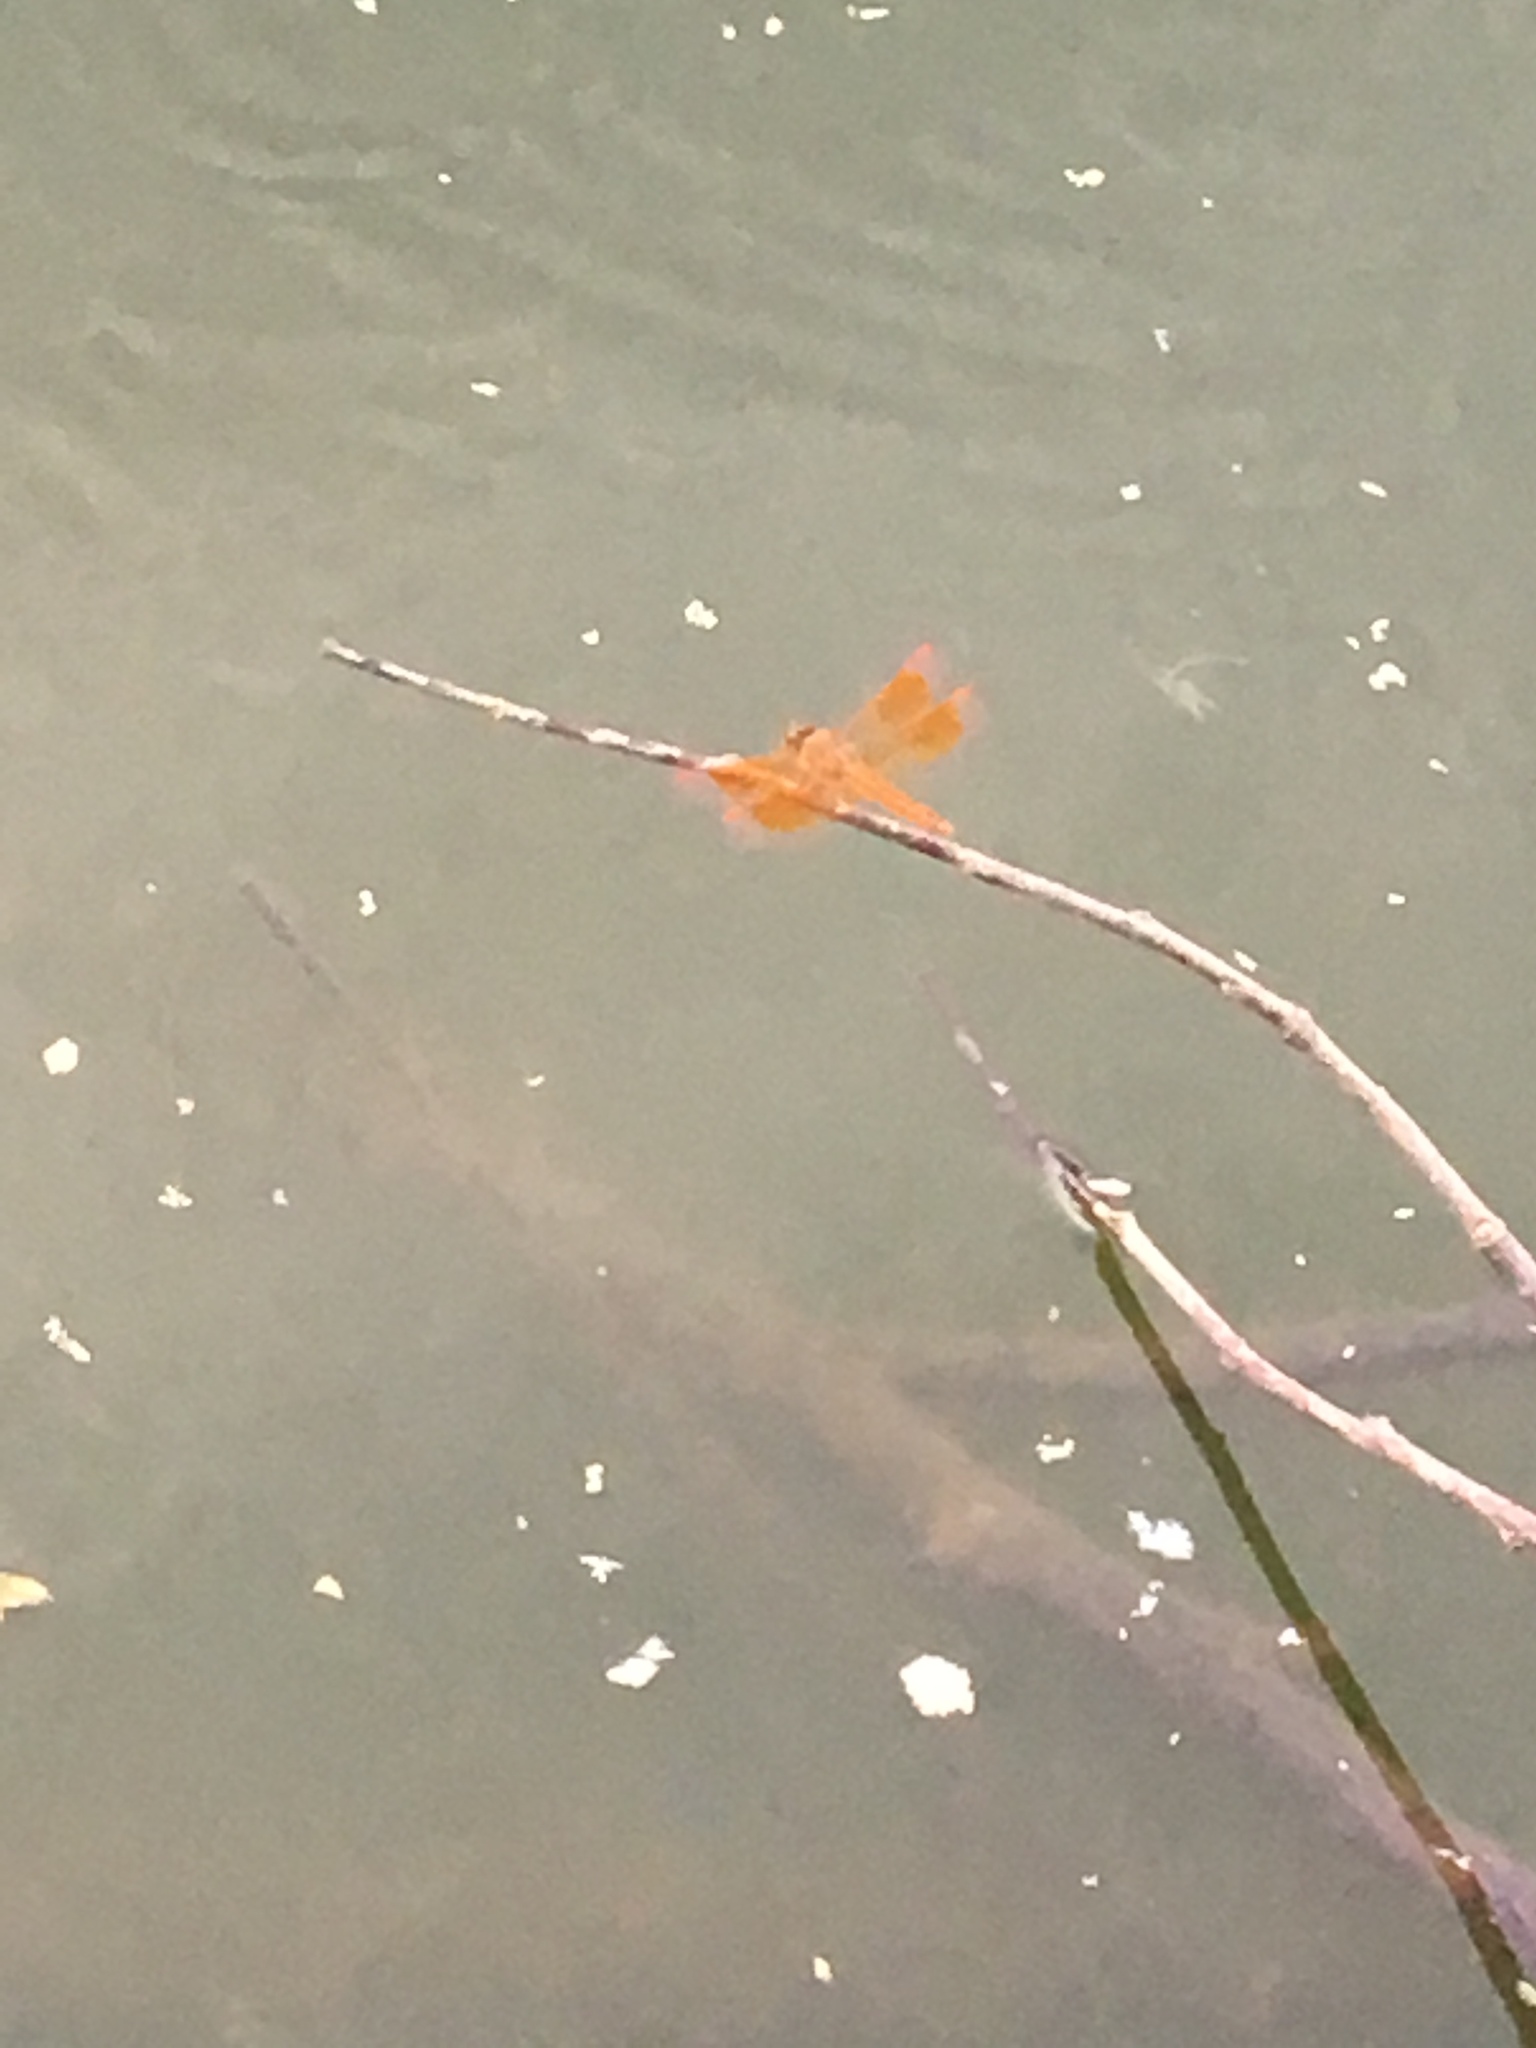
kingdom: Animalia
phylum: Arthropoda
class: Insecta
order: Odonata
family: Libellulidae
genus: Brachythemis
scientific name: Brachythemis contaminata
